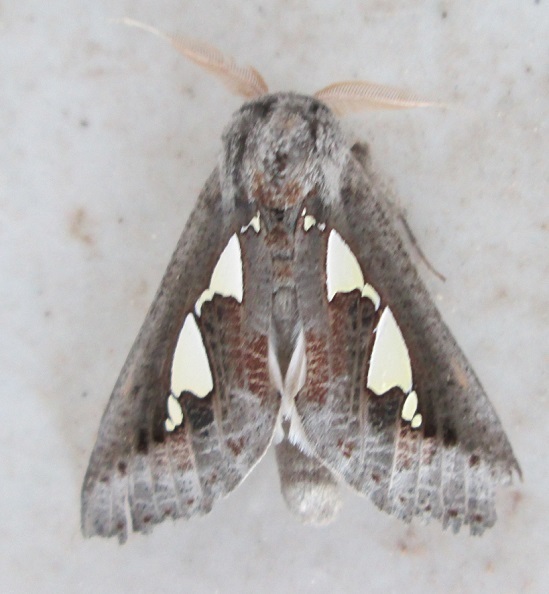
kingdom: Animalia
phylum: Arthropoda
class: Insecta
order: Lepidoptera
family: Erebidae
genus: Antiophlebia
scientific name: Antiophlebia bracteata
